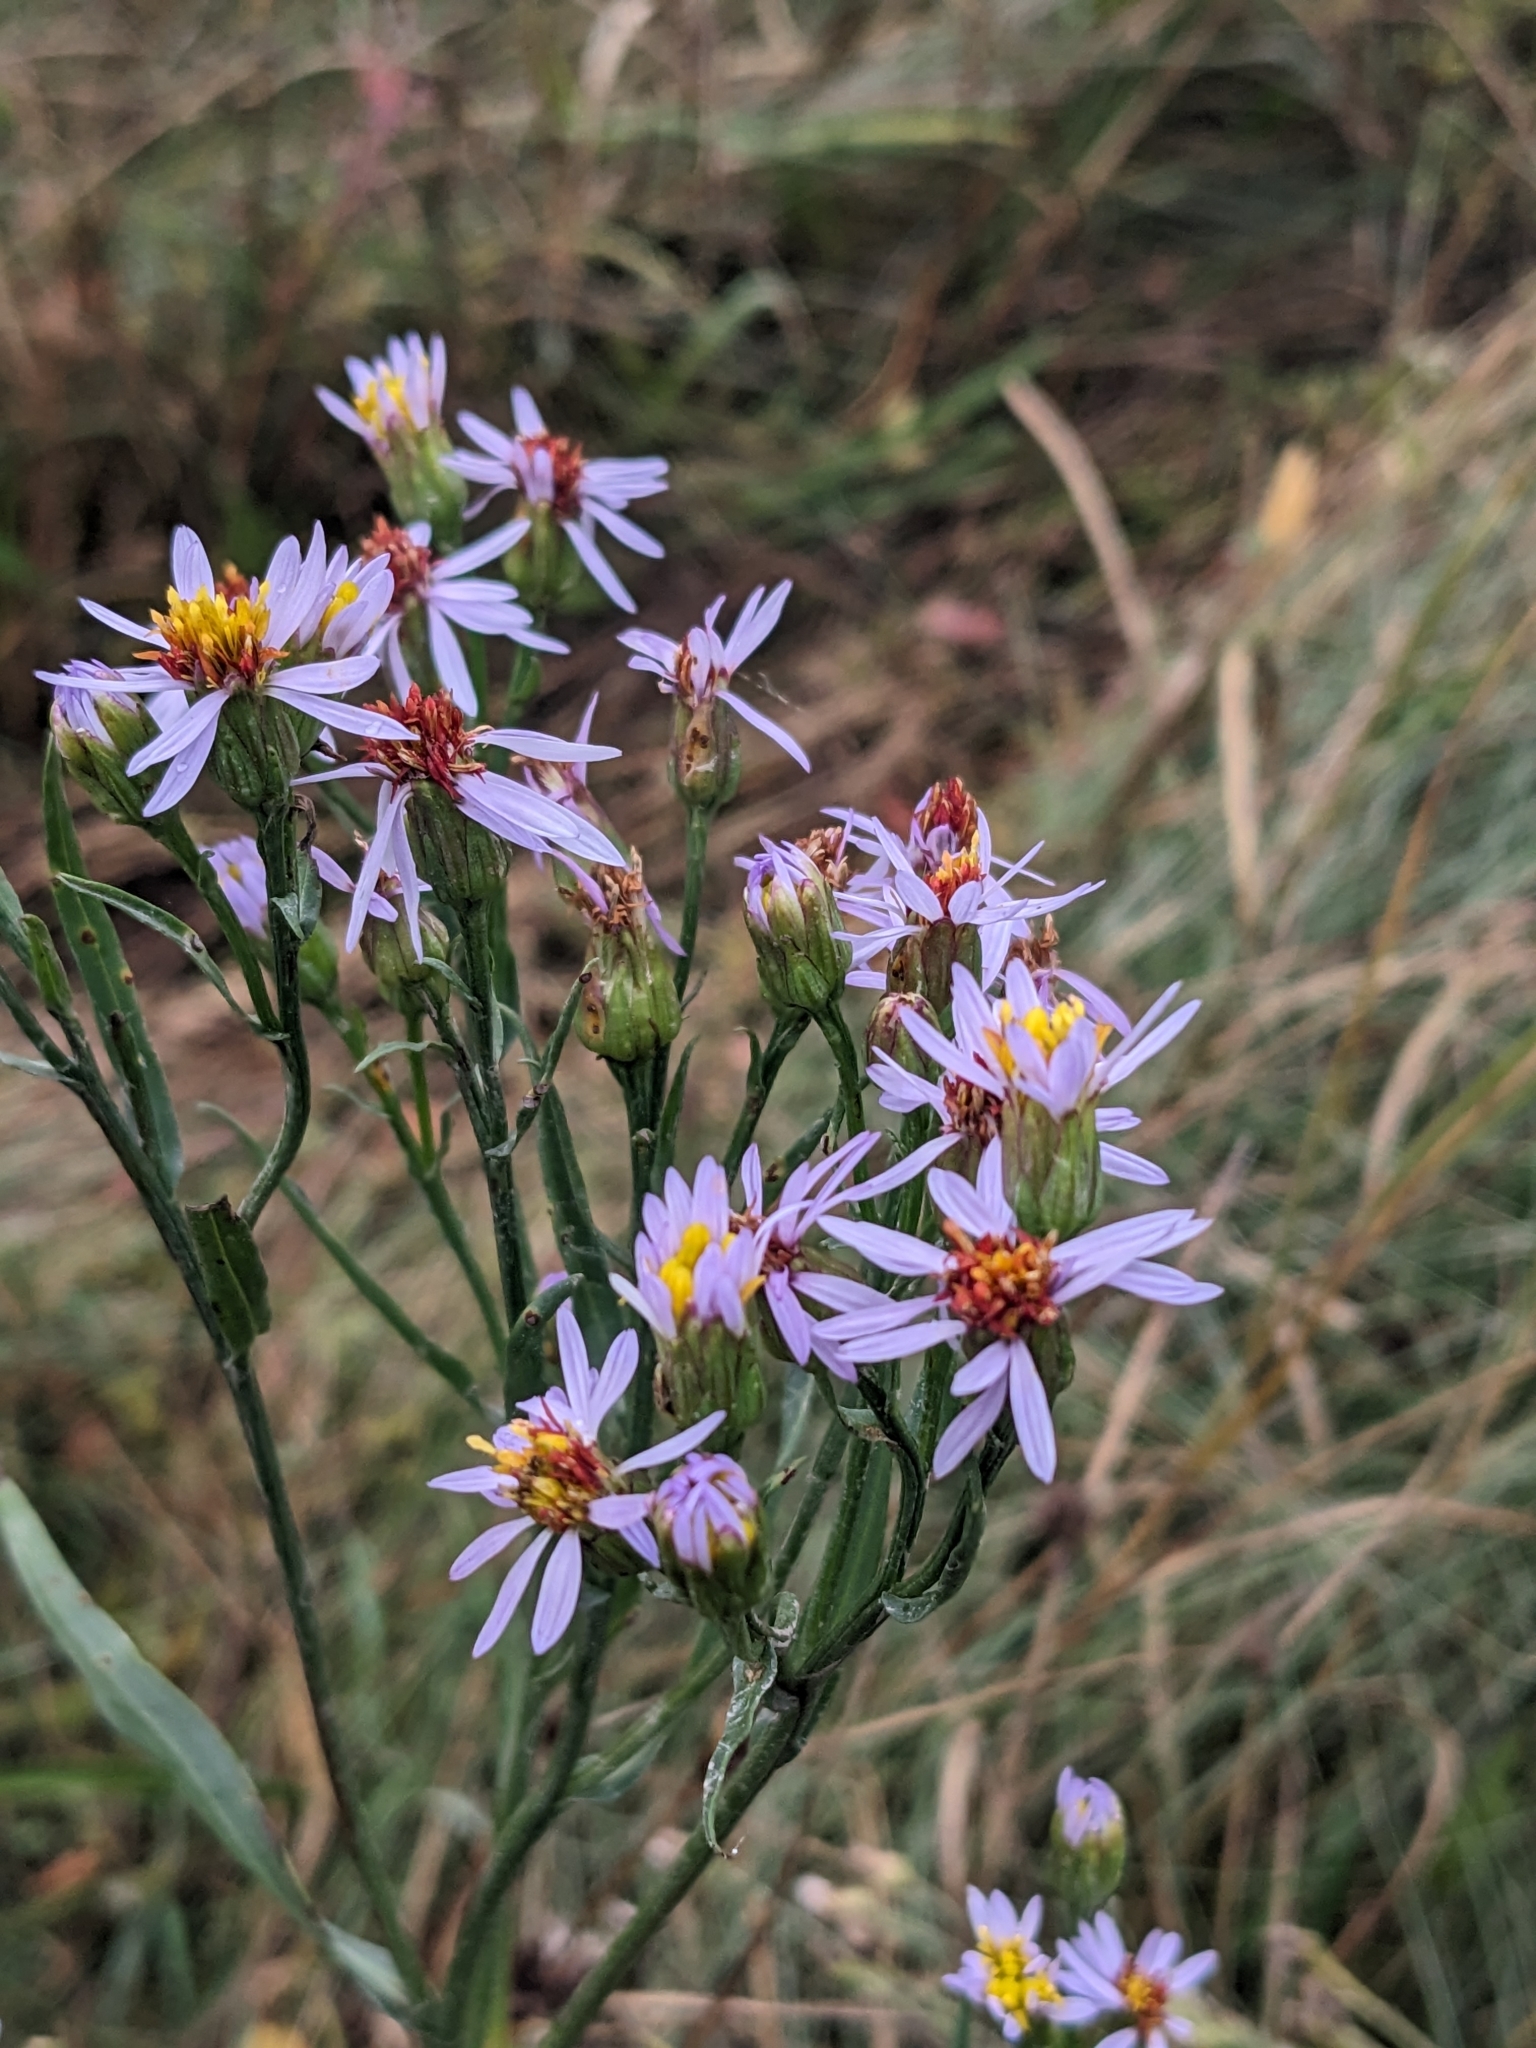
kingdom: Plantae
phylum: Tracheophyta
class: Magnoliopsida
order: Asterales
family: Asteraceae
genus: Tripolium
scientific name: Tripolium pannonicum
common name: Sea aster
